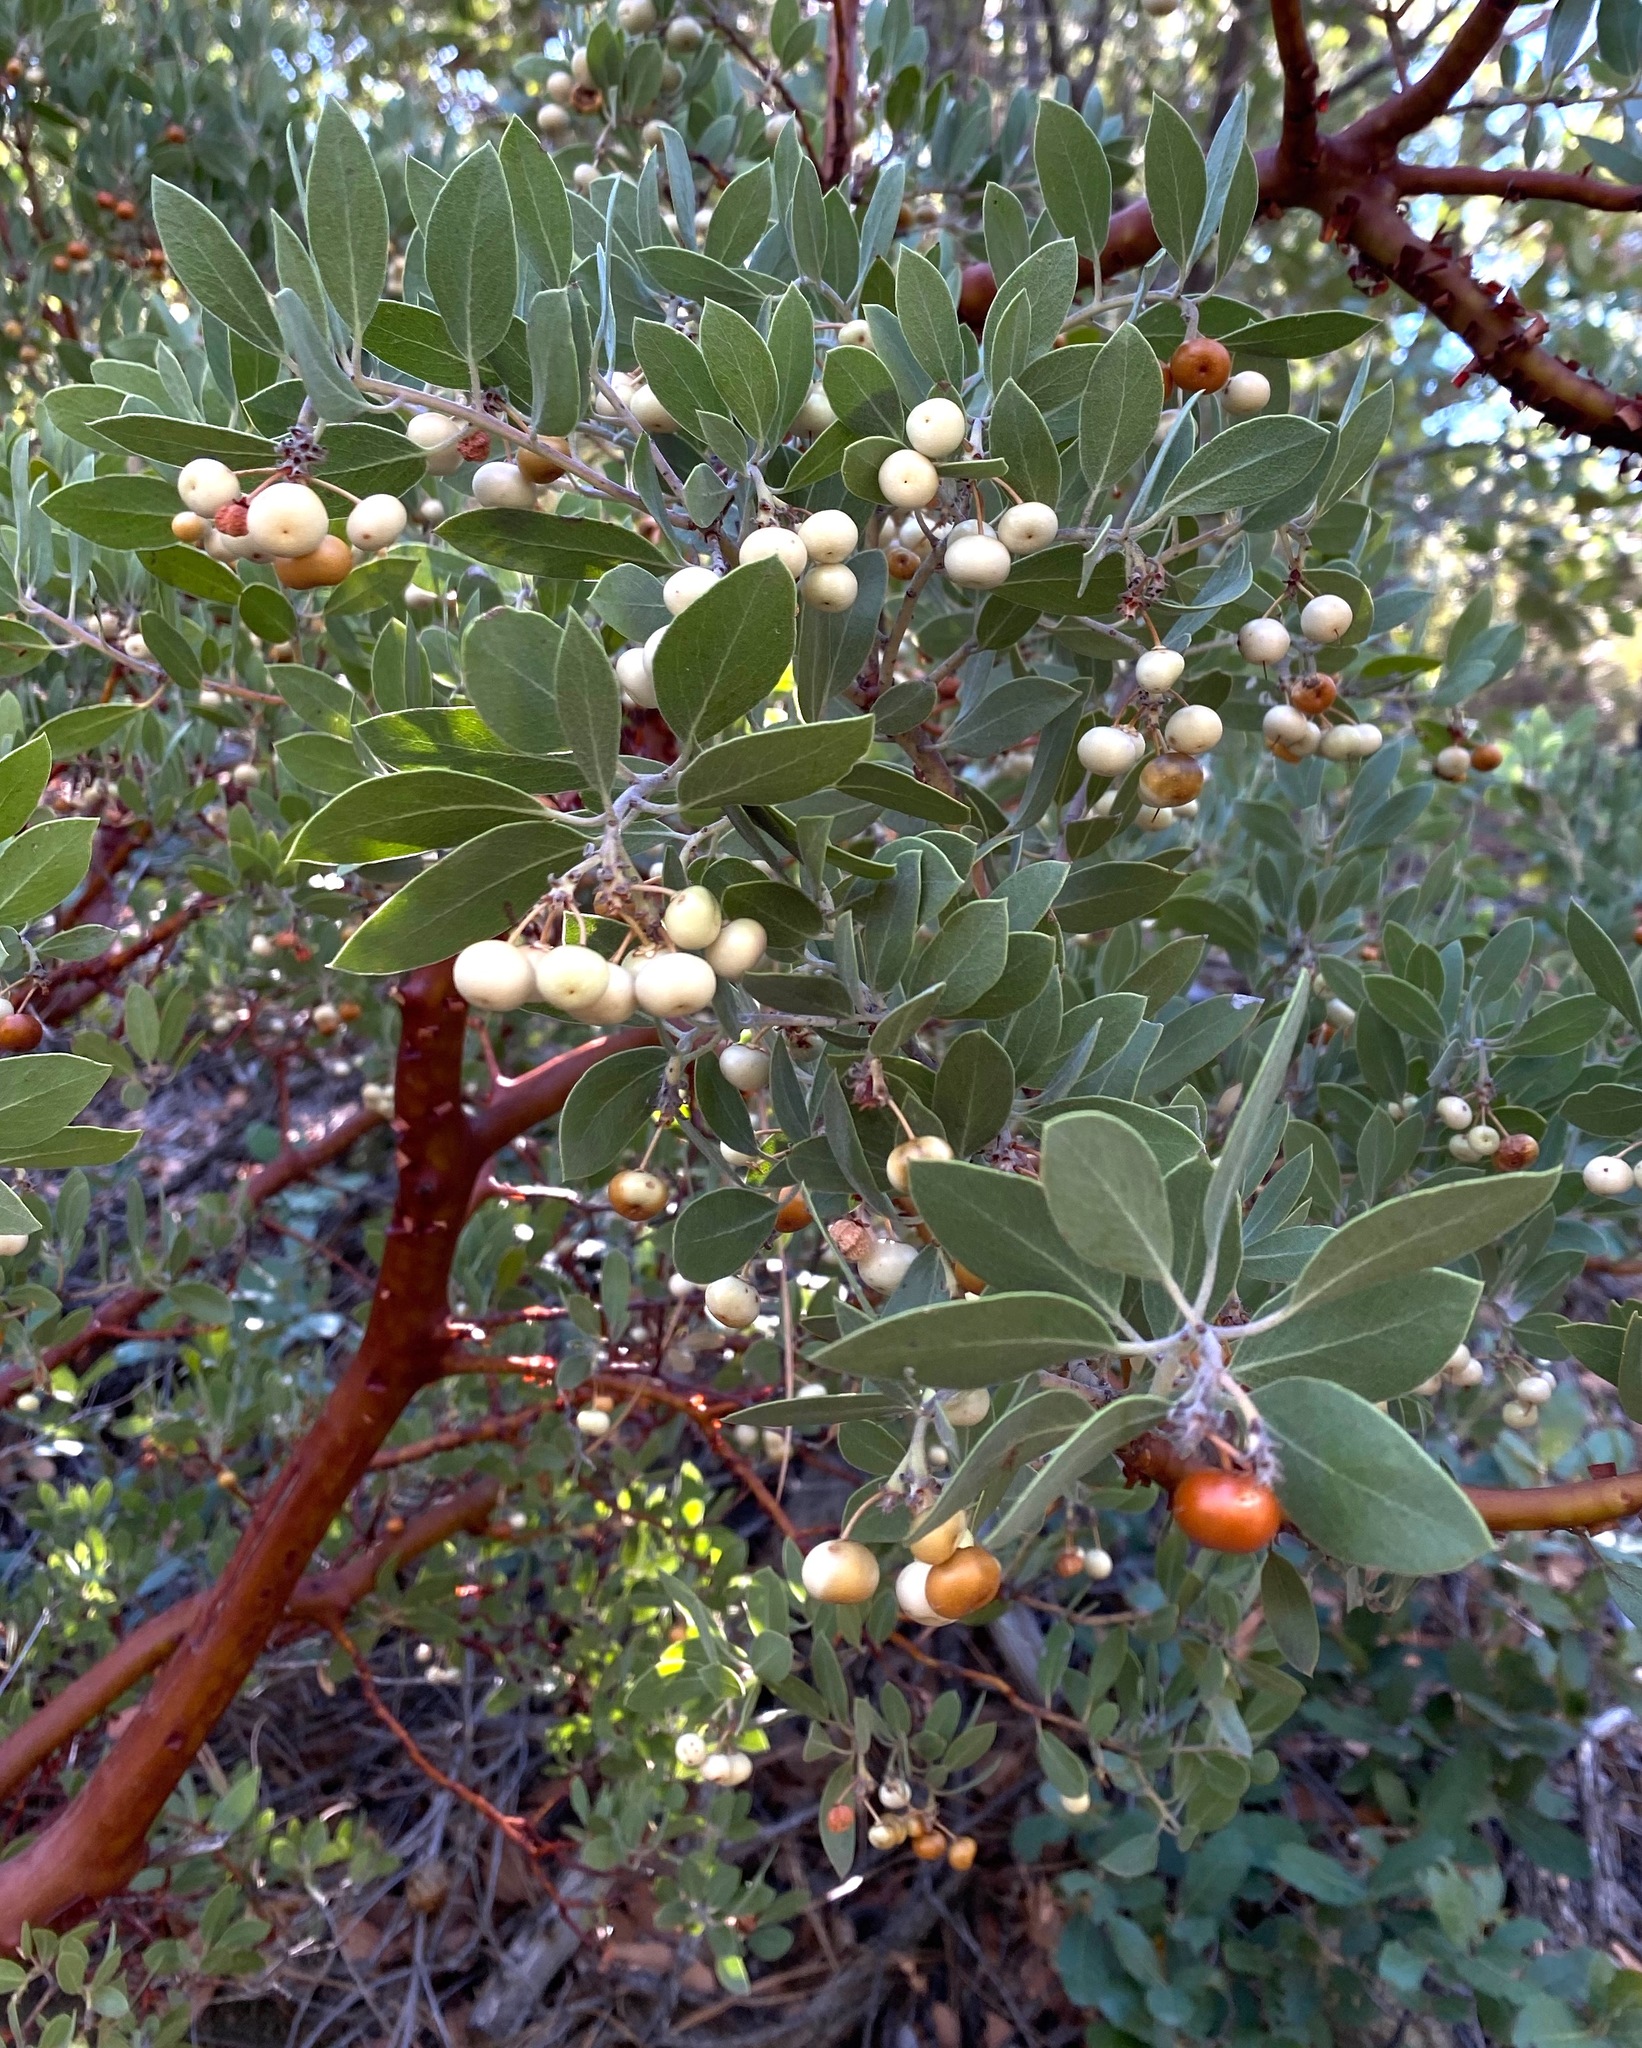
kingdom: Plantae
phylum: Tracheophyta
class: Magnoliopsida
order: Ericales
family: Ericaceae
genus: Arctostaphylos
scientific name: Arctostaphylos pungens
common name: Mexican manzanita
